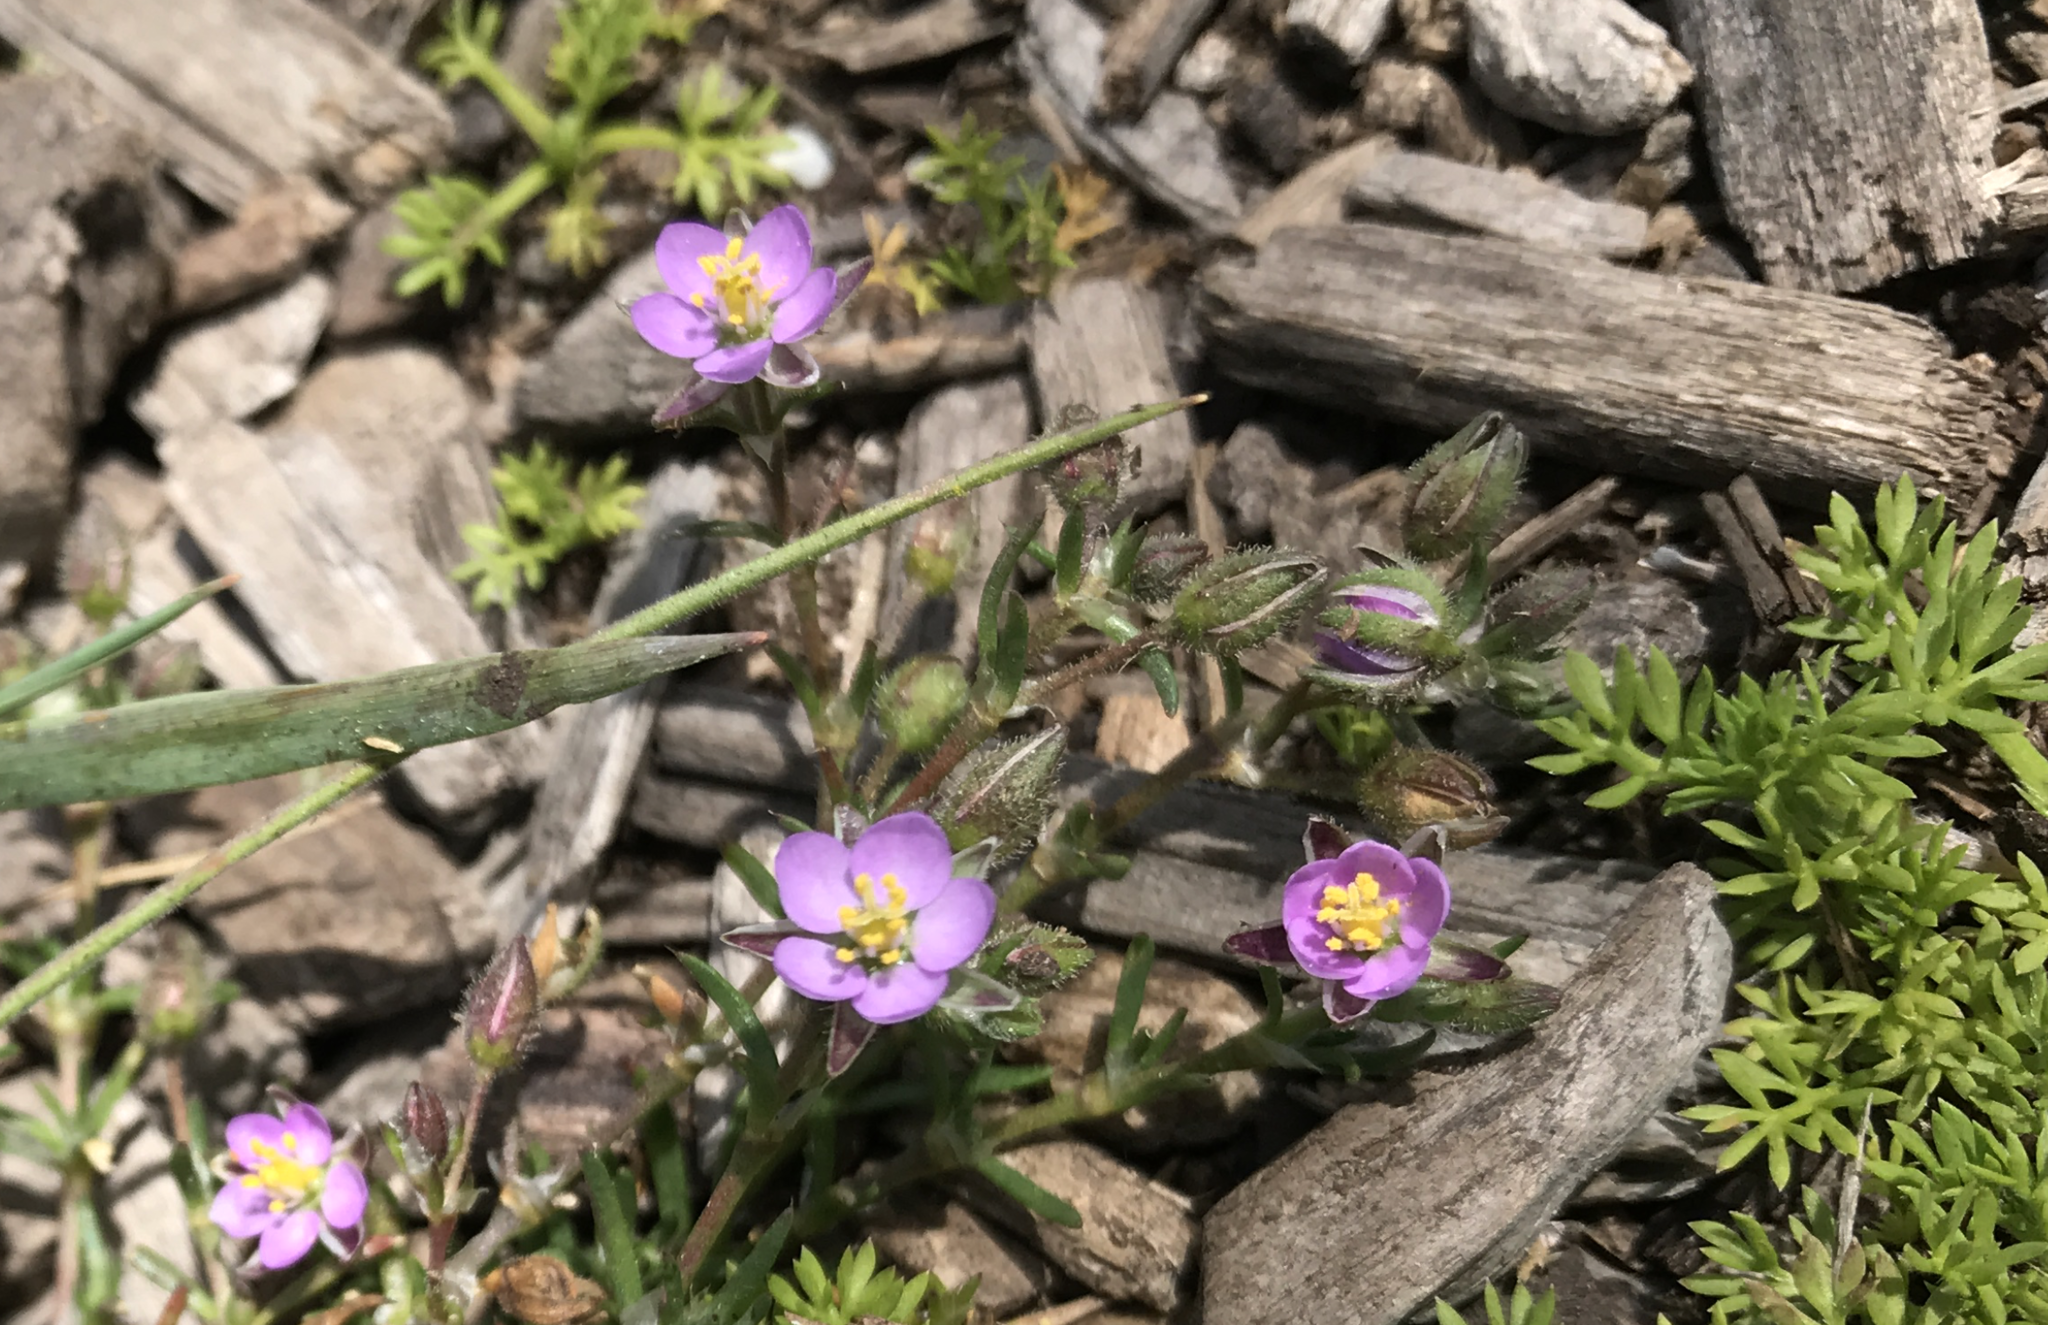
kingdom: Plantae
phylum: Tracheophyta
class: Magnoliopsida
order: Caryophyllales
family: Caryophyllaceae
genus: Spergularia
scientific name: Spergularia rubra
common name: Red sand-spurrey
